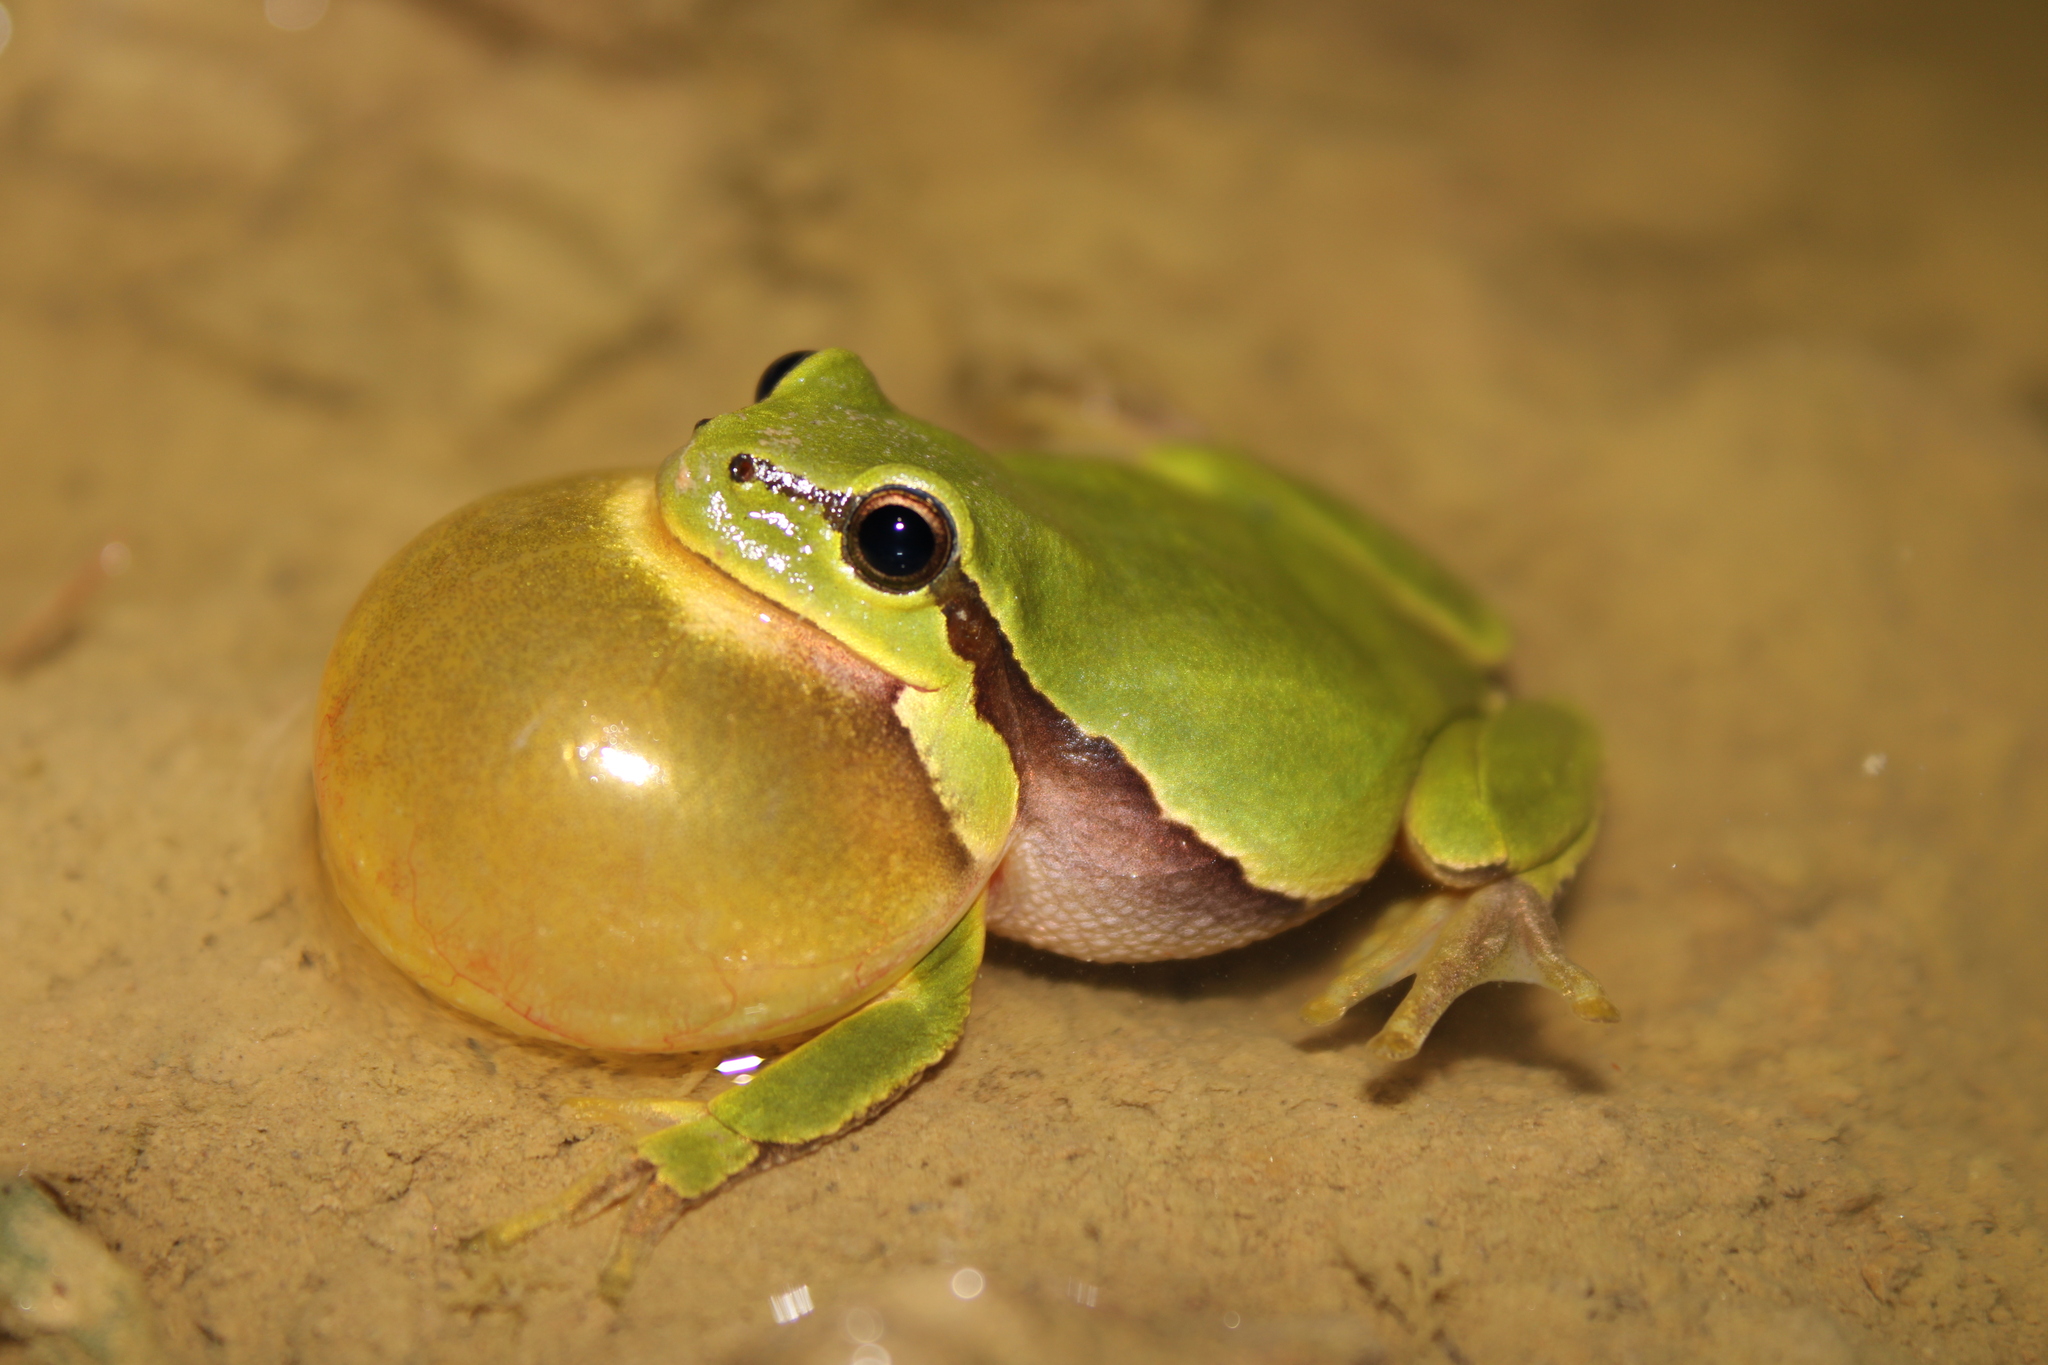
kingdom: Animalia
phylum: Chordata
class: Amphibia
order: Anura
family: Hylidae
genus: Hyla
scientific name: Hyla arborea
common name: Common tree frog
